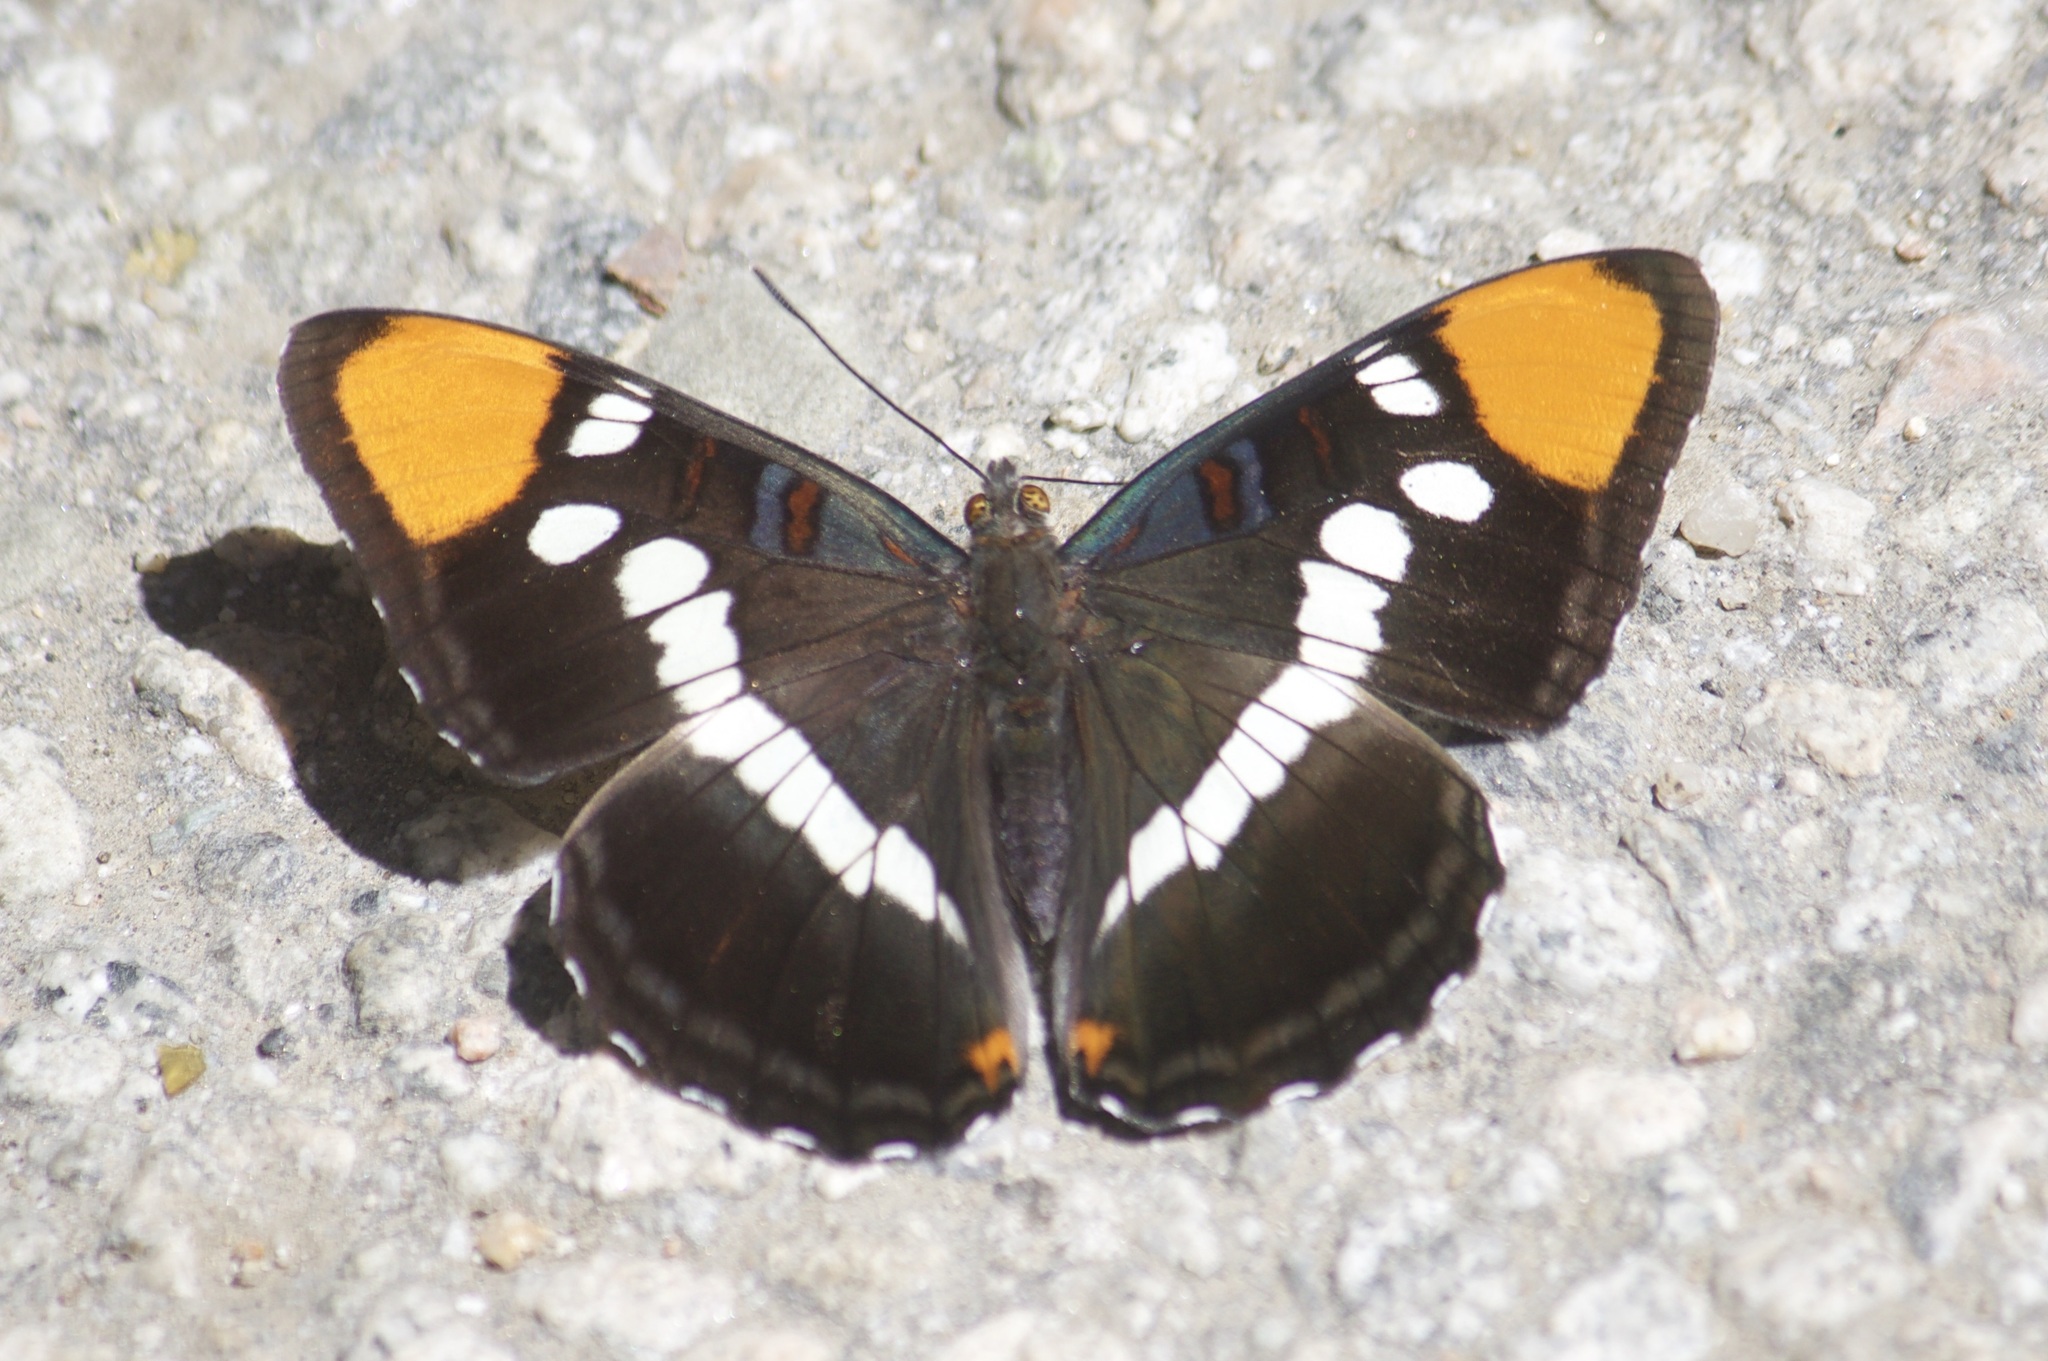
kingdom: Animalia
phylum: Arthropoda
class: Insecta
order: Lepidoptera
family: Nymphalidae
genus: Limenitis
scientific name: Limenitis bredowii
